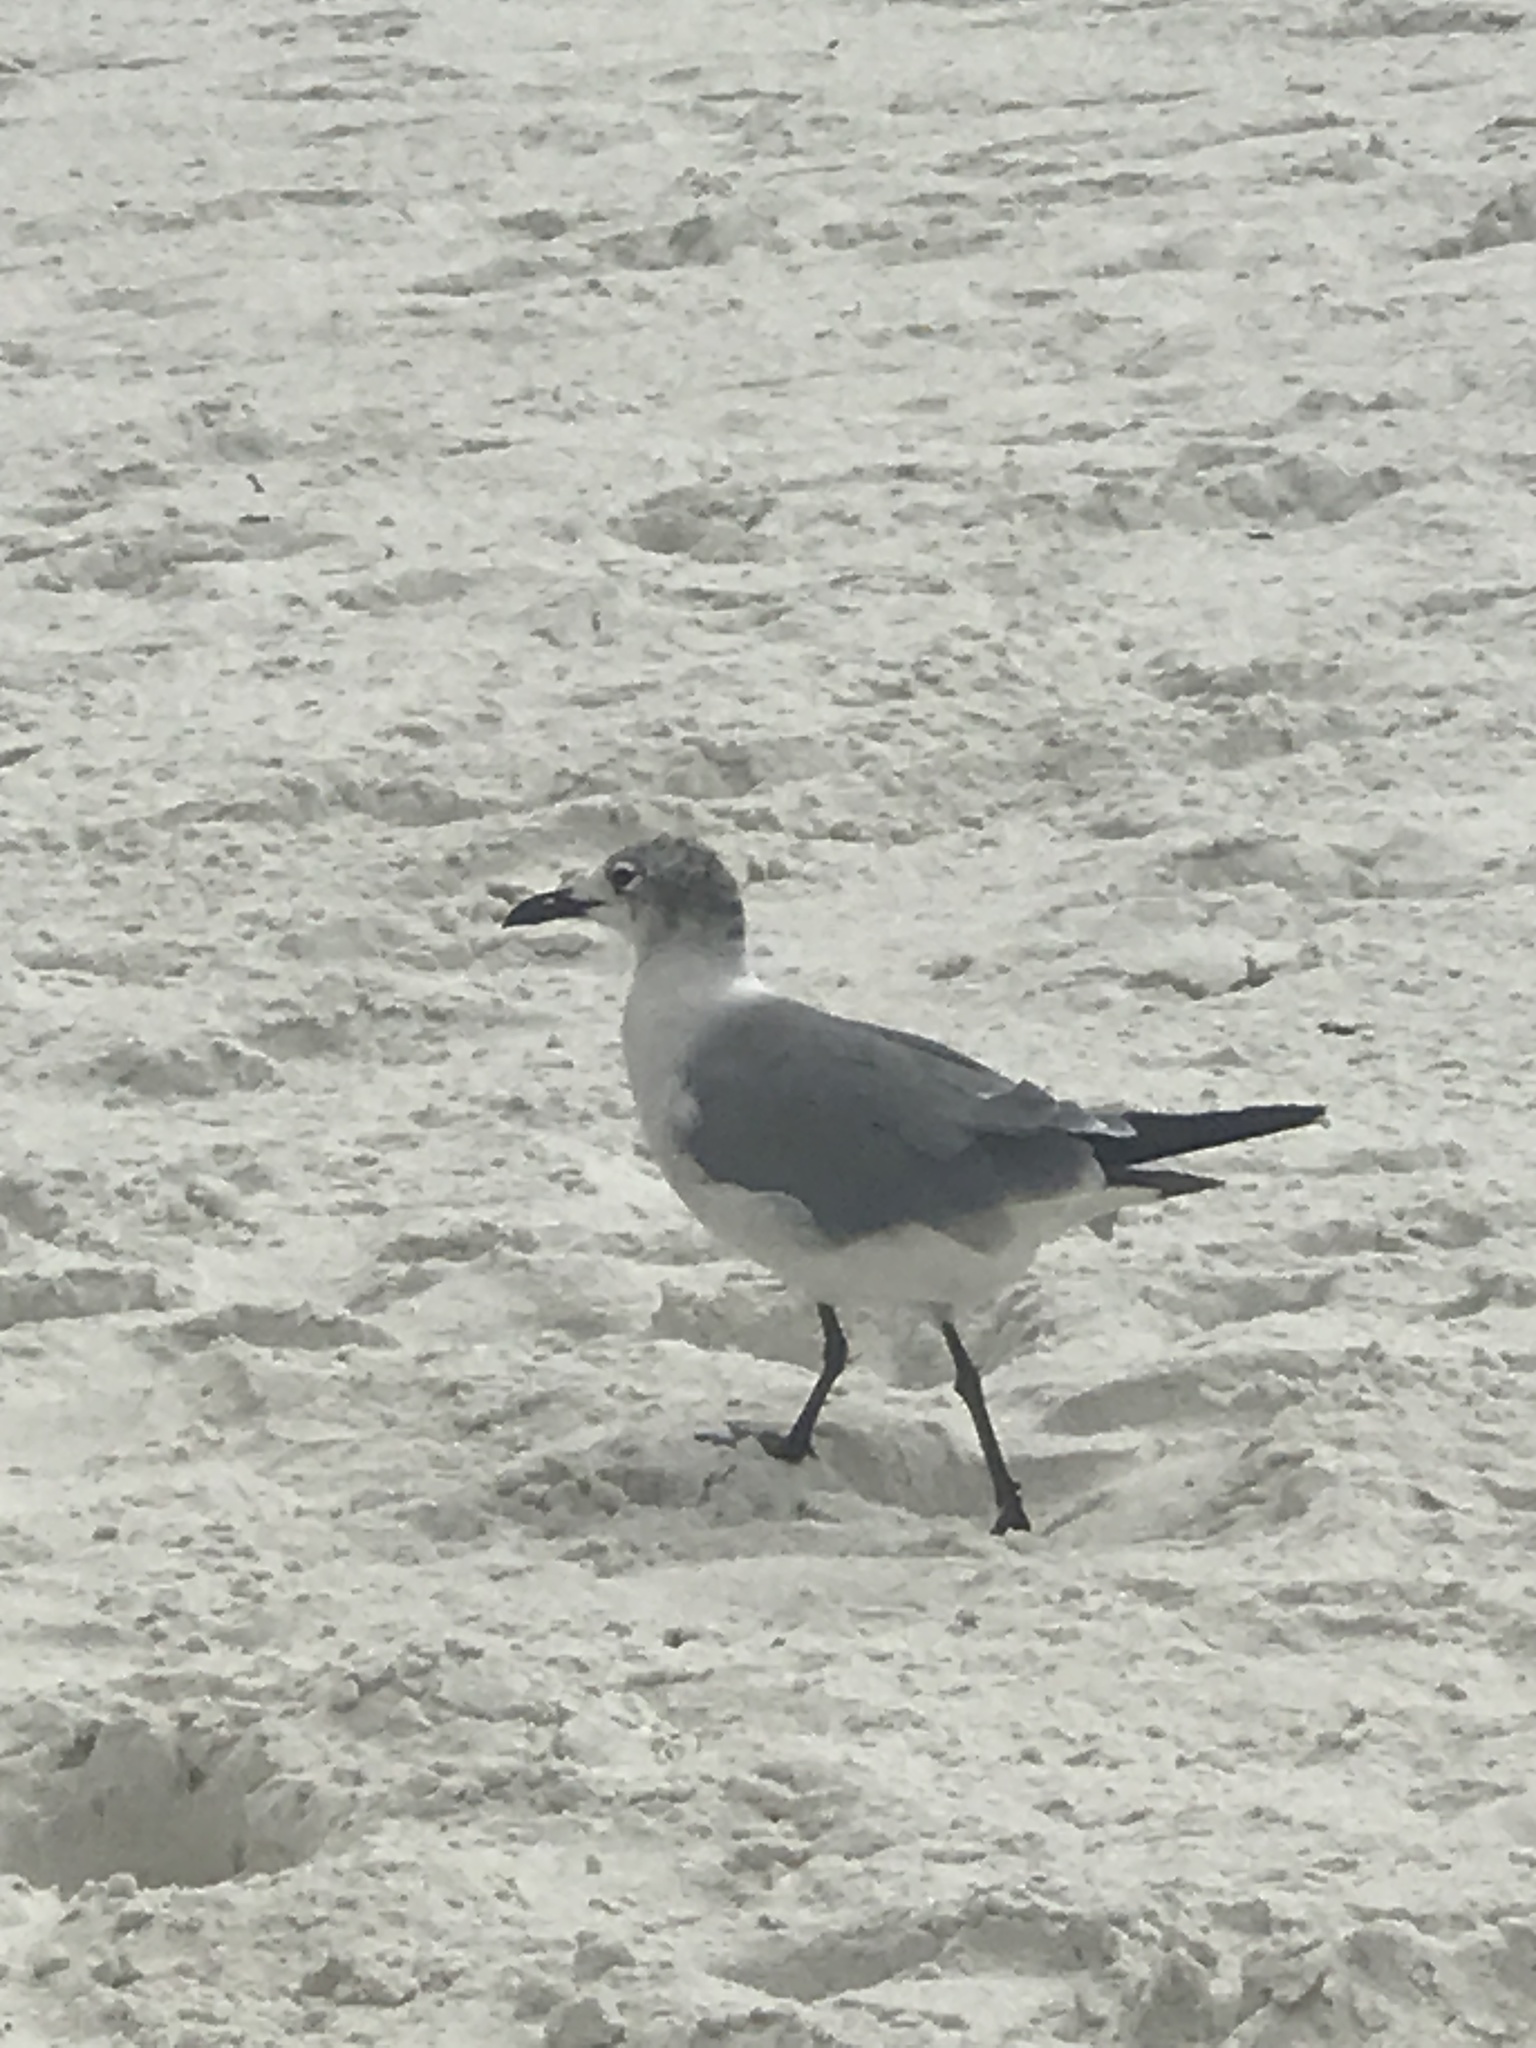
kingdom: Animalia
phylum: Chordata
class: Aves
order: Charadriiformes
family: Laridae
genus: Leucophaeus
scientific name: Leucophaeus atricilla
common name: Laughing gull
